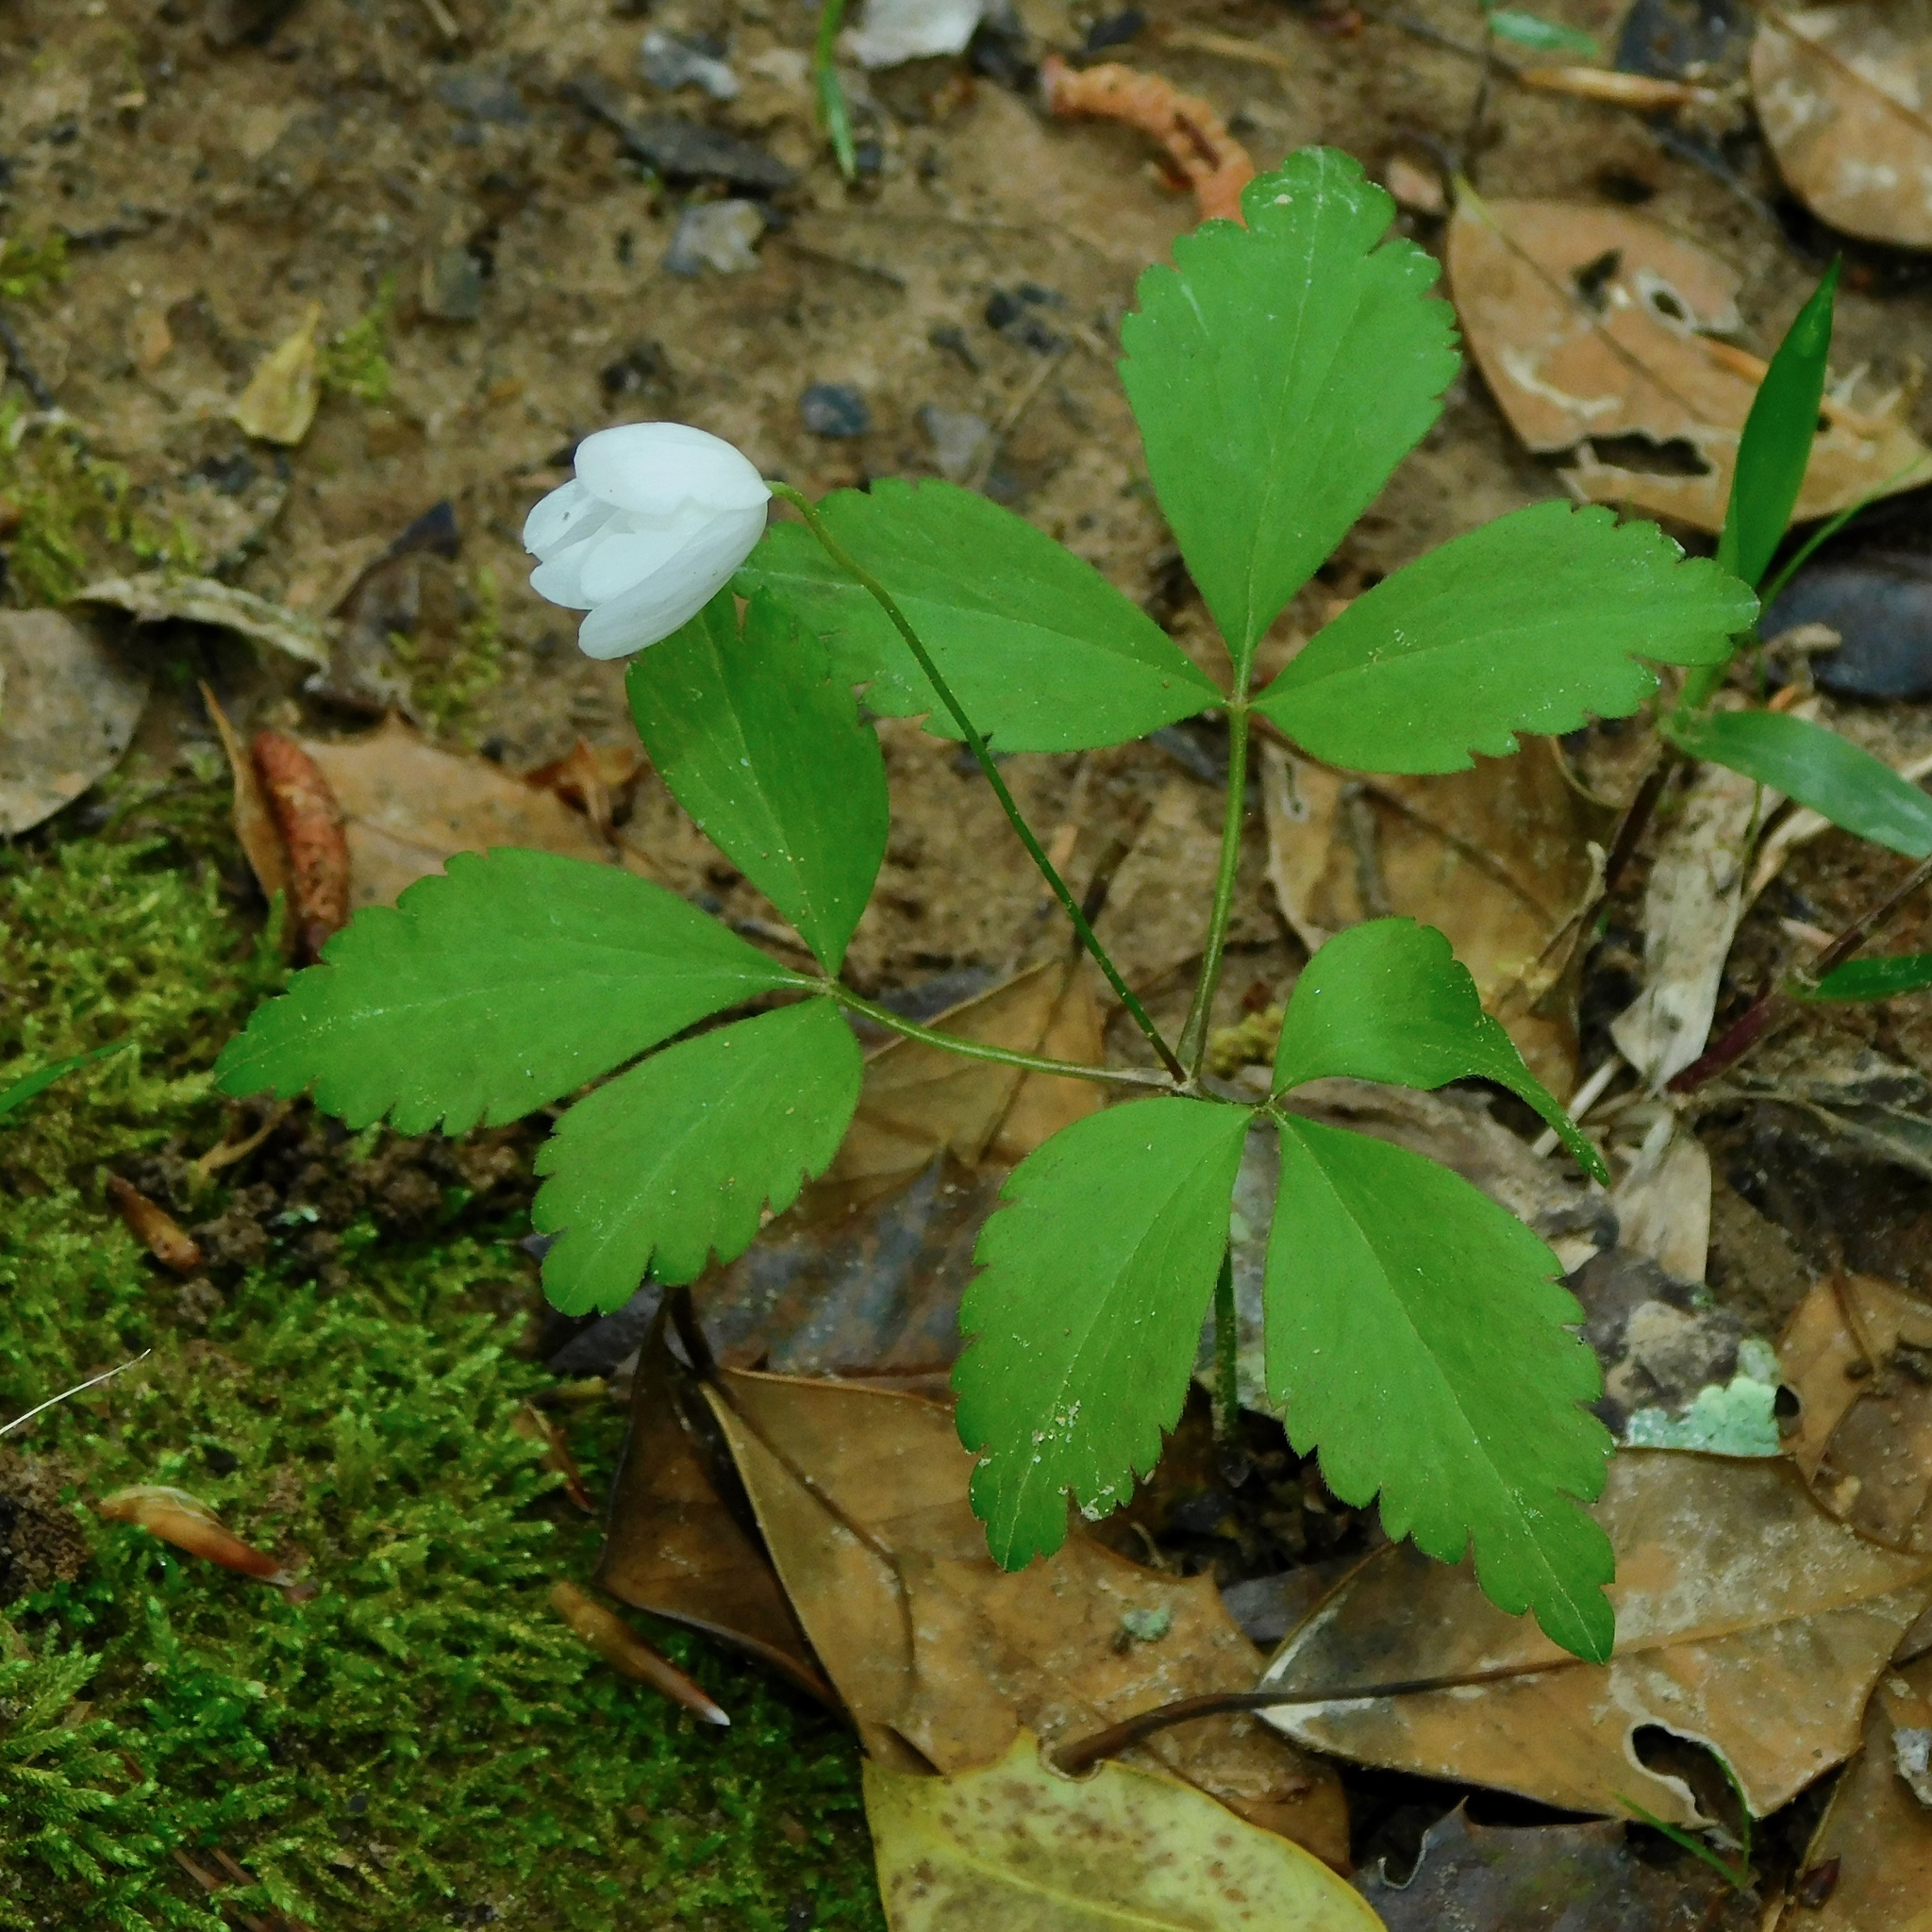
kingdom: Plantae
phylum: Tracheophyta
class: Magnoliopsida
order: Ranunculales
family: Ranunculaceae
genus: Anemone
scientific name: Anemone lancifolia
